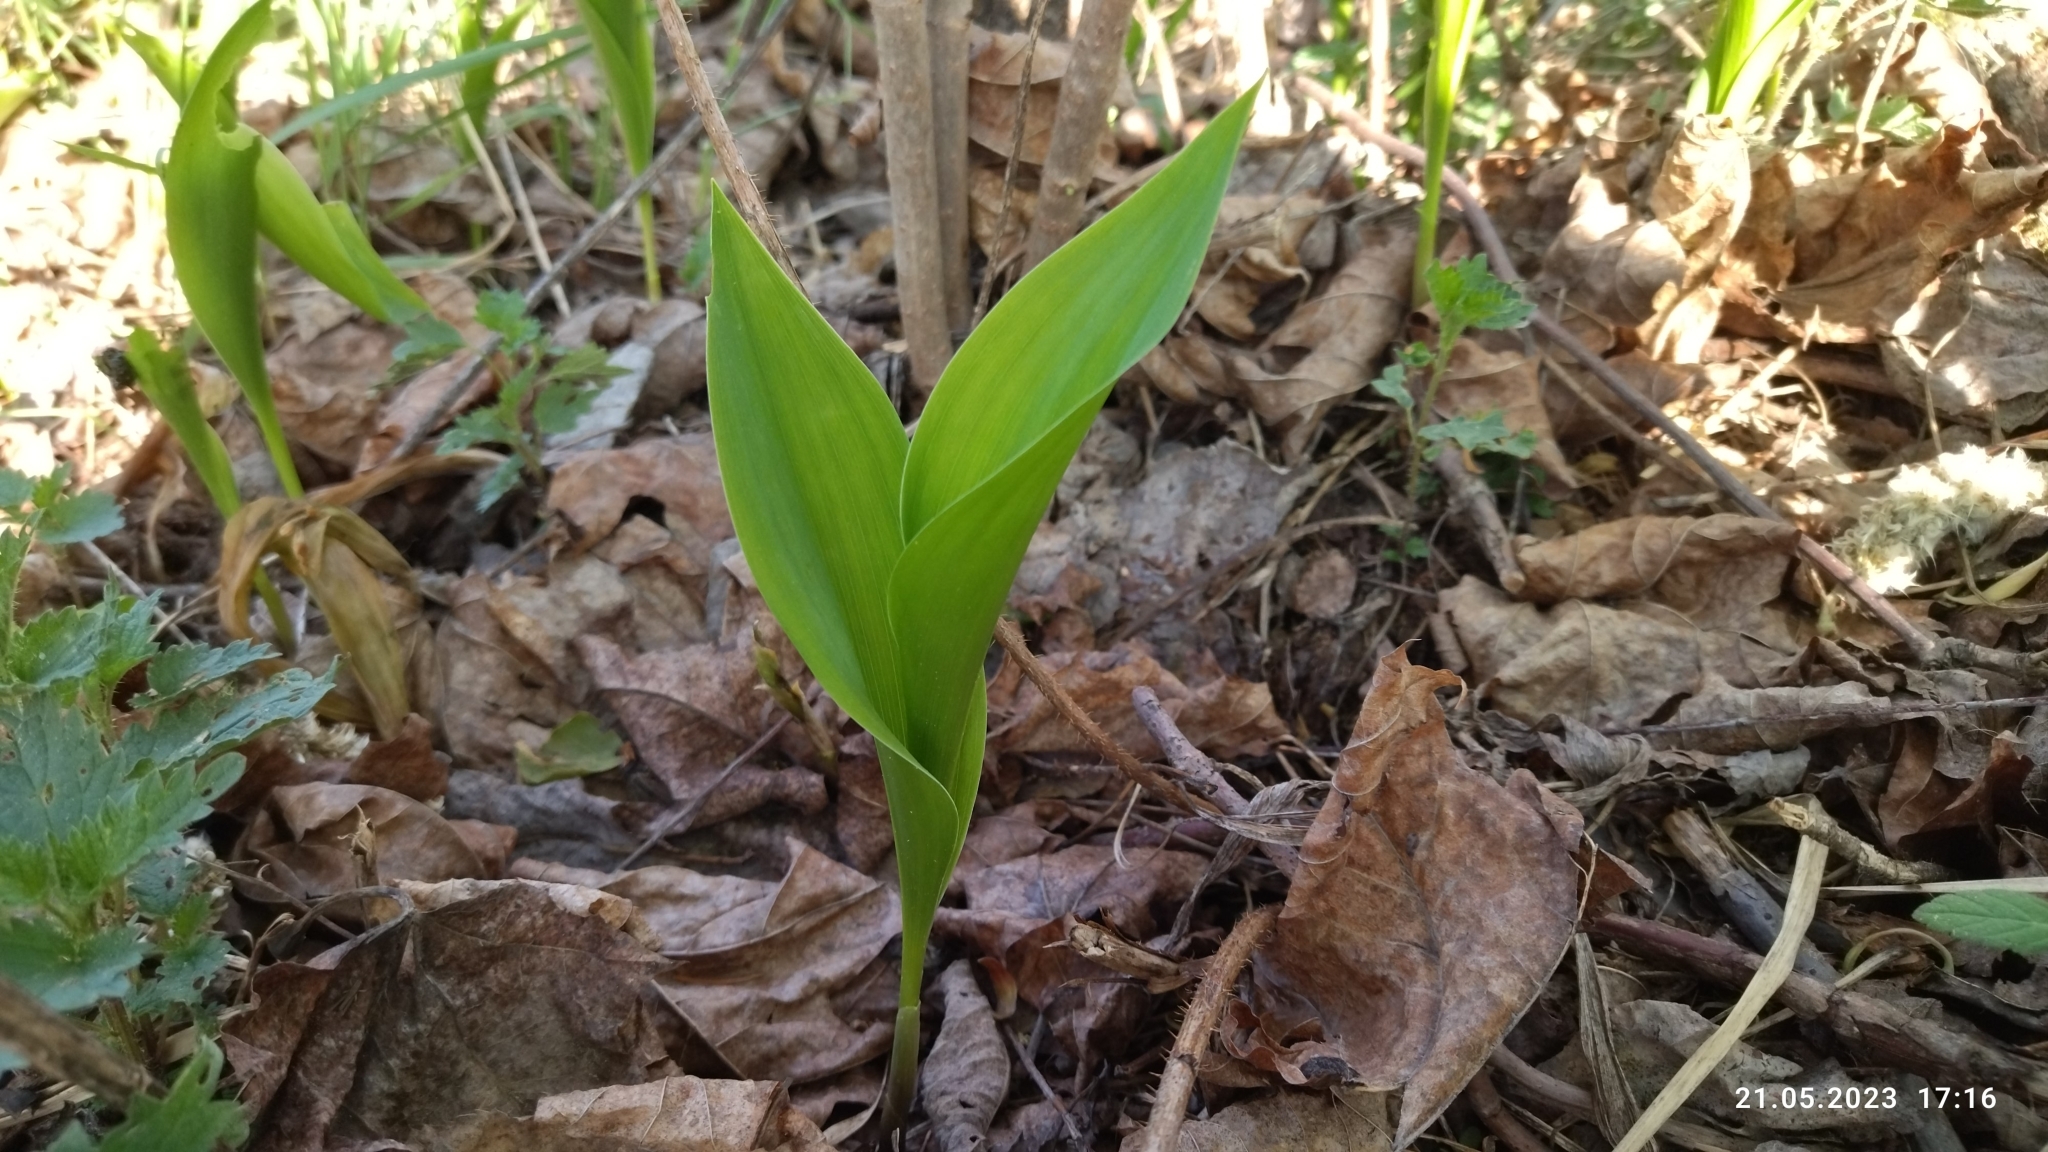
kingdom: Plantae
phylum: Tracheophyta
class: Liliopsida
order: Asparagales
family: Asparagaceae
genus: Convallaria
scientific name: Convallaria majalis
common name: Lily-of-the-valley
